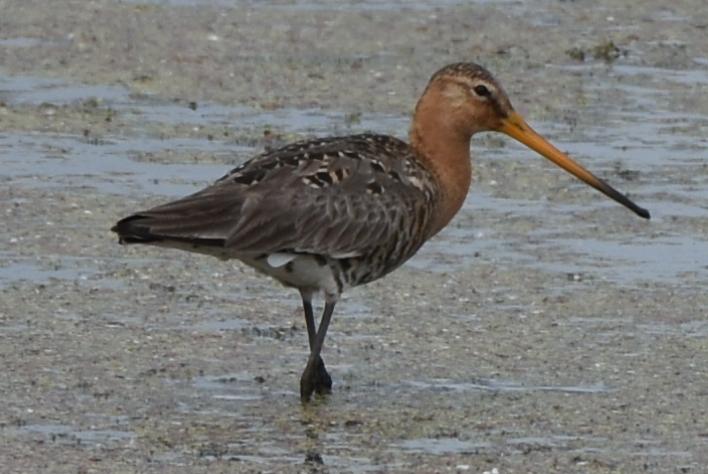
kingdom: Animalia
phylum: Chordata
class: Aves
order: Charadriiformes
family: Scolopacidae
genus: Limosa
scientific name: Limosa limosa
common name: Black-tailed godwit
